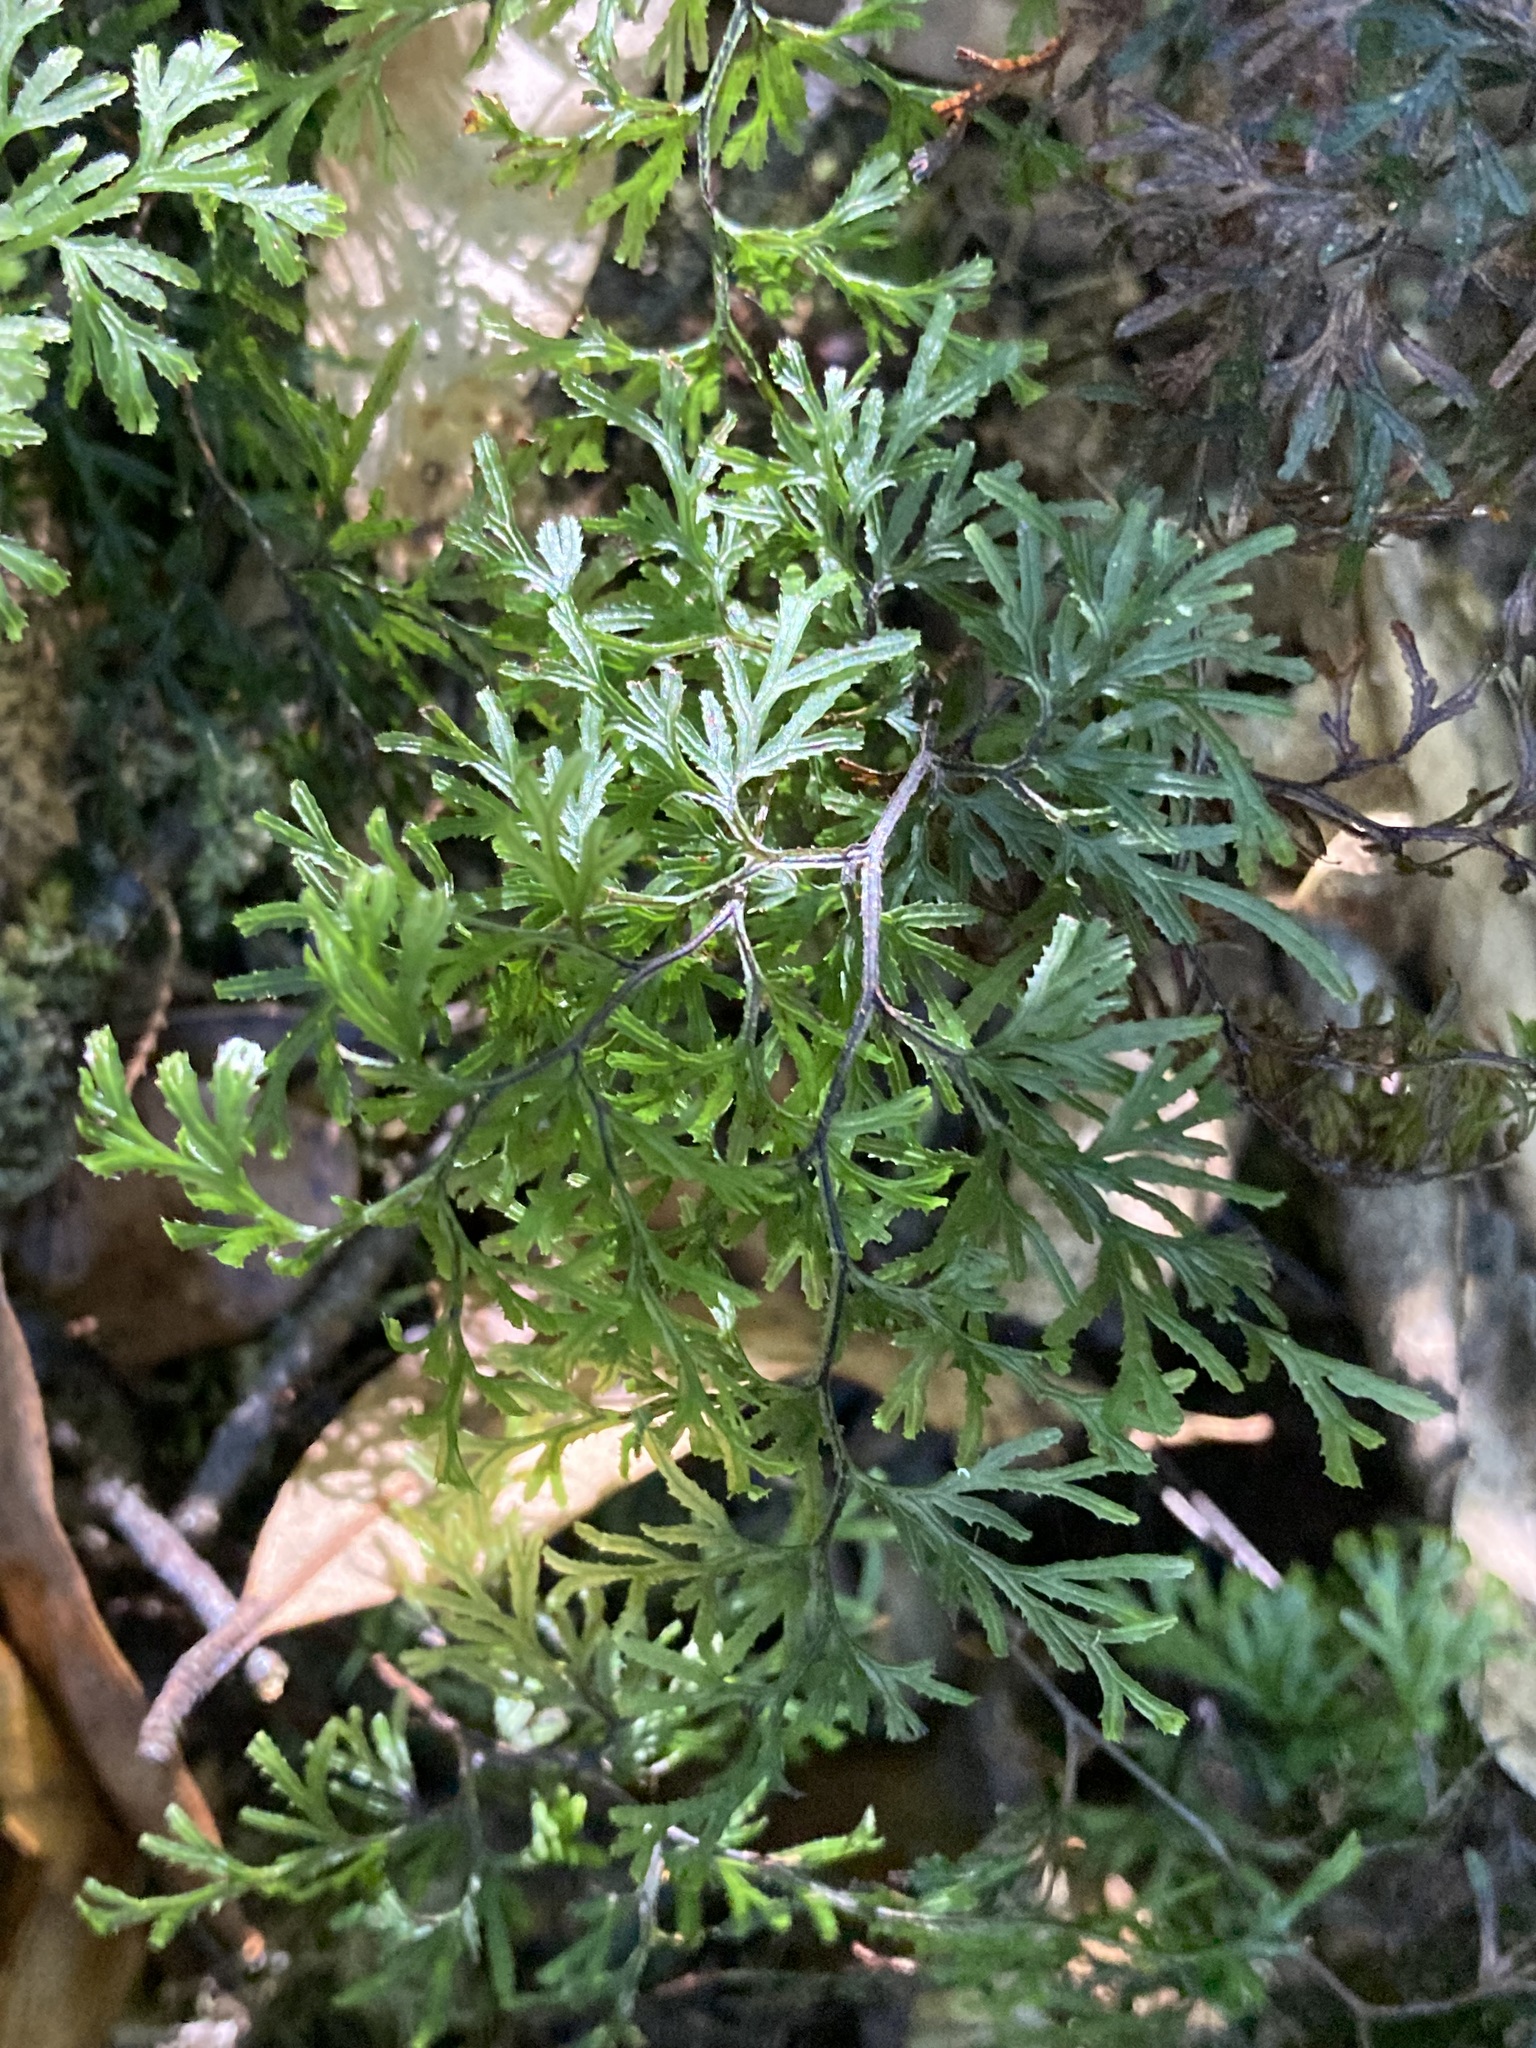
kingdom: Plantae
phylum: Tracheophyta
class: Polypodiopsida
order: Hymenophyllales
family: Hymenophyllaceae
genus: Hymenophyllum
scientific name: Hymenophyllum multifidum
